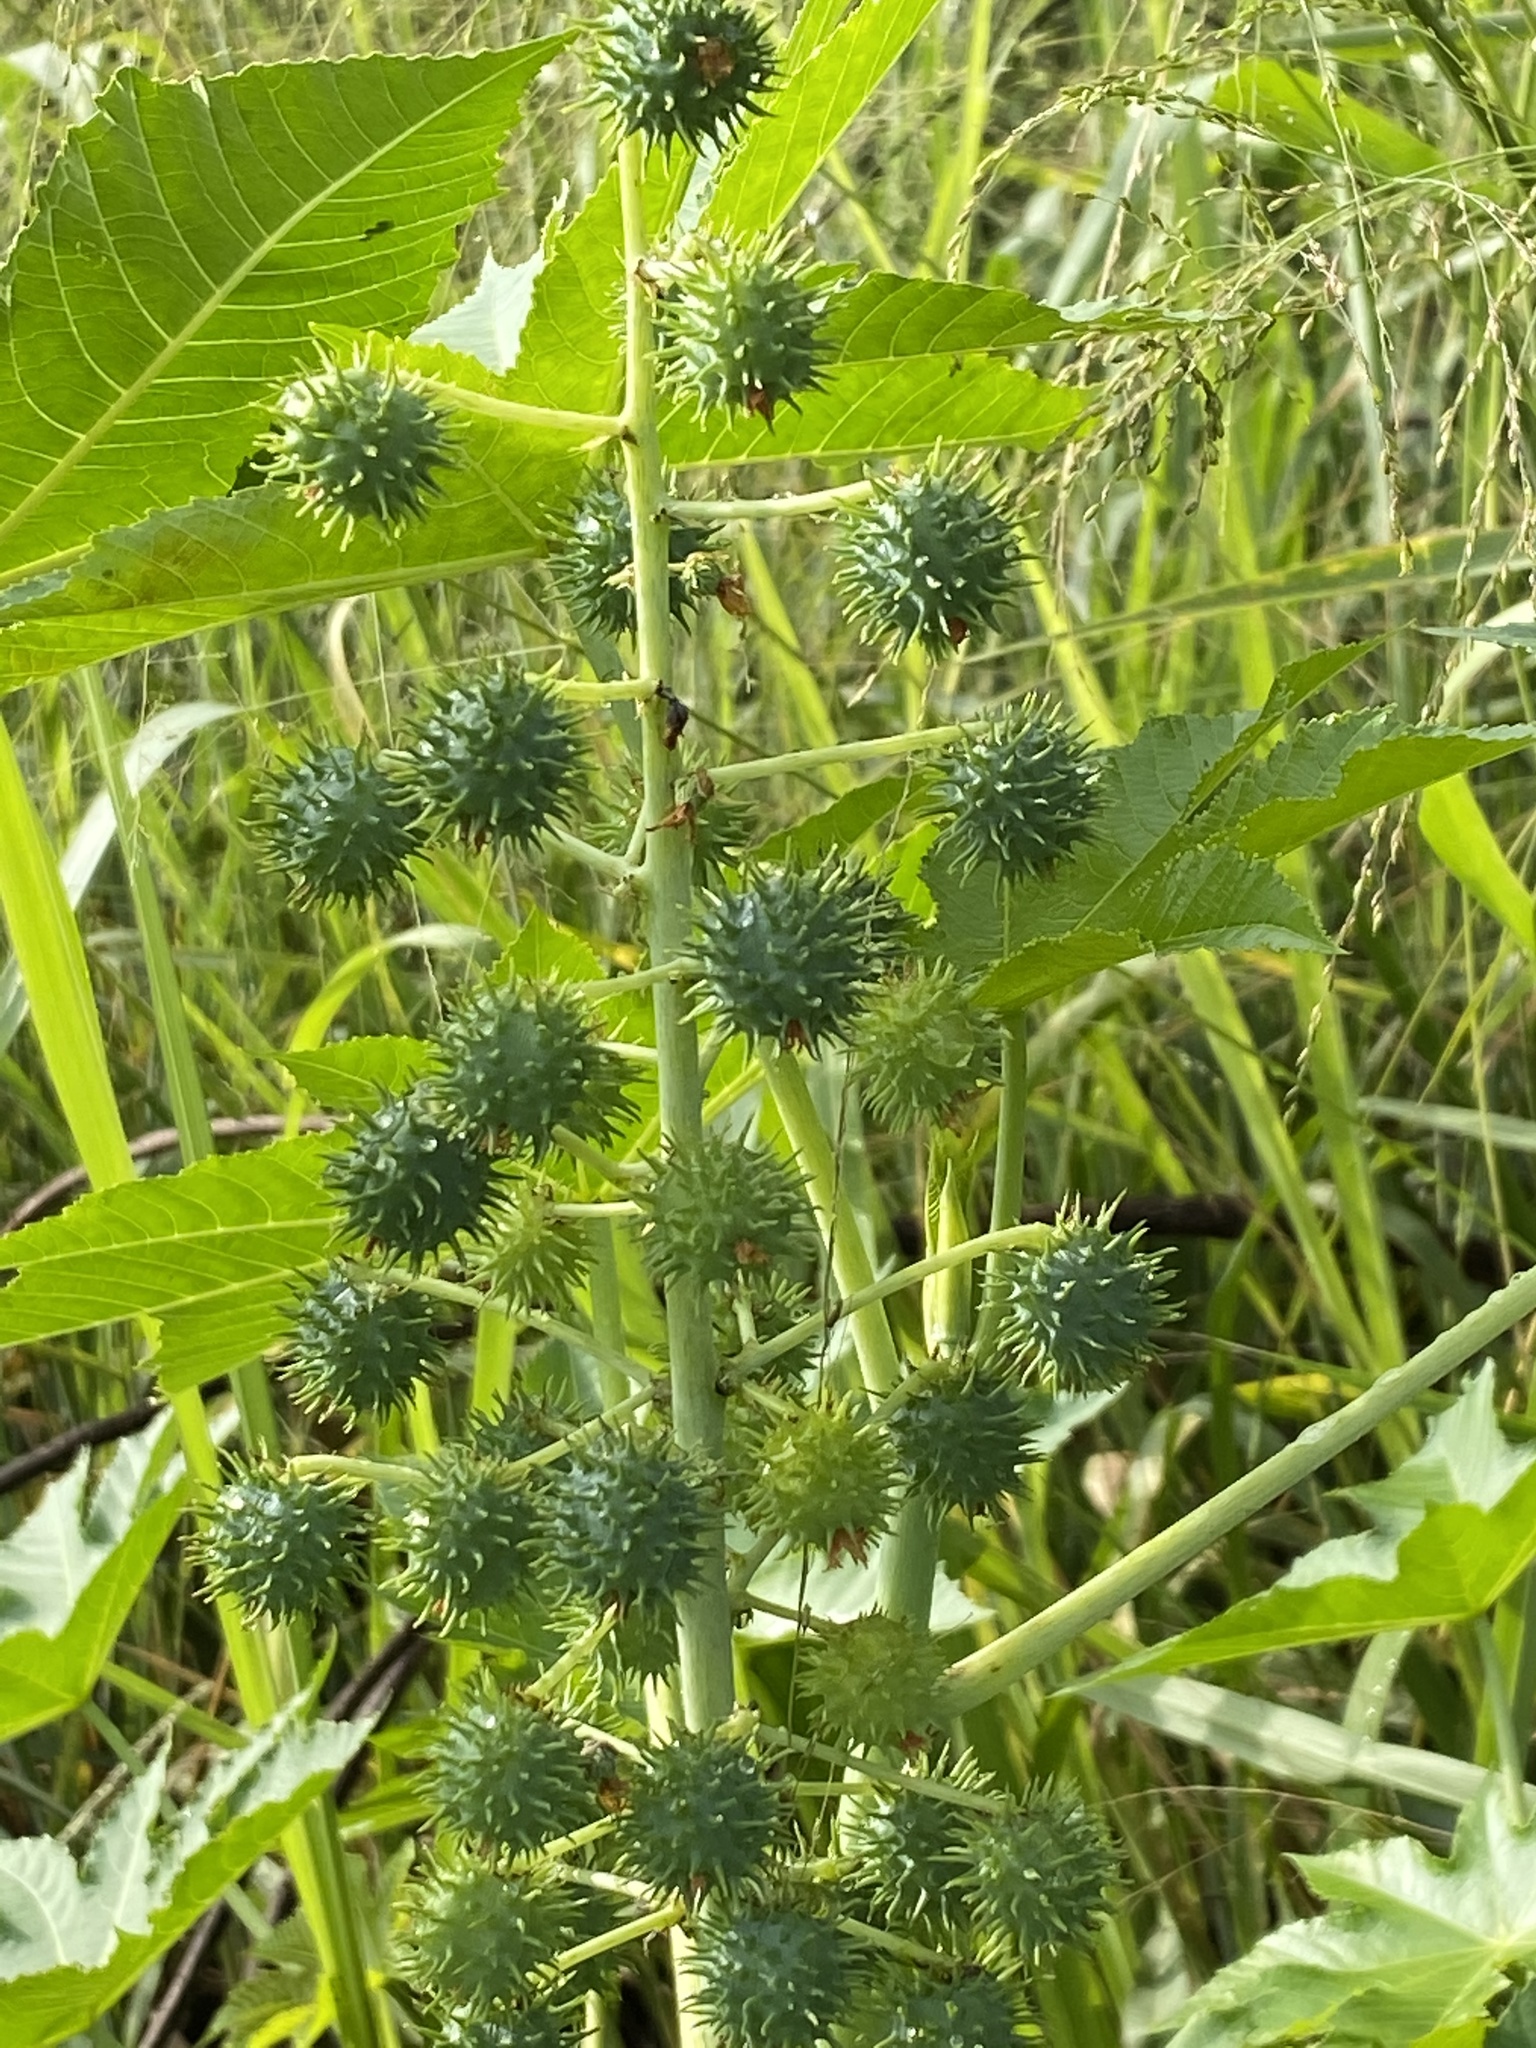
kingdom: Plantae
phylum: Tracheophyta
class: Magnoliopsida
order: Malpighiales
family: Euphorbiaceae
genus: Ricinus
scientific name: Ricinus communis
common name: Castor-oil-plant
